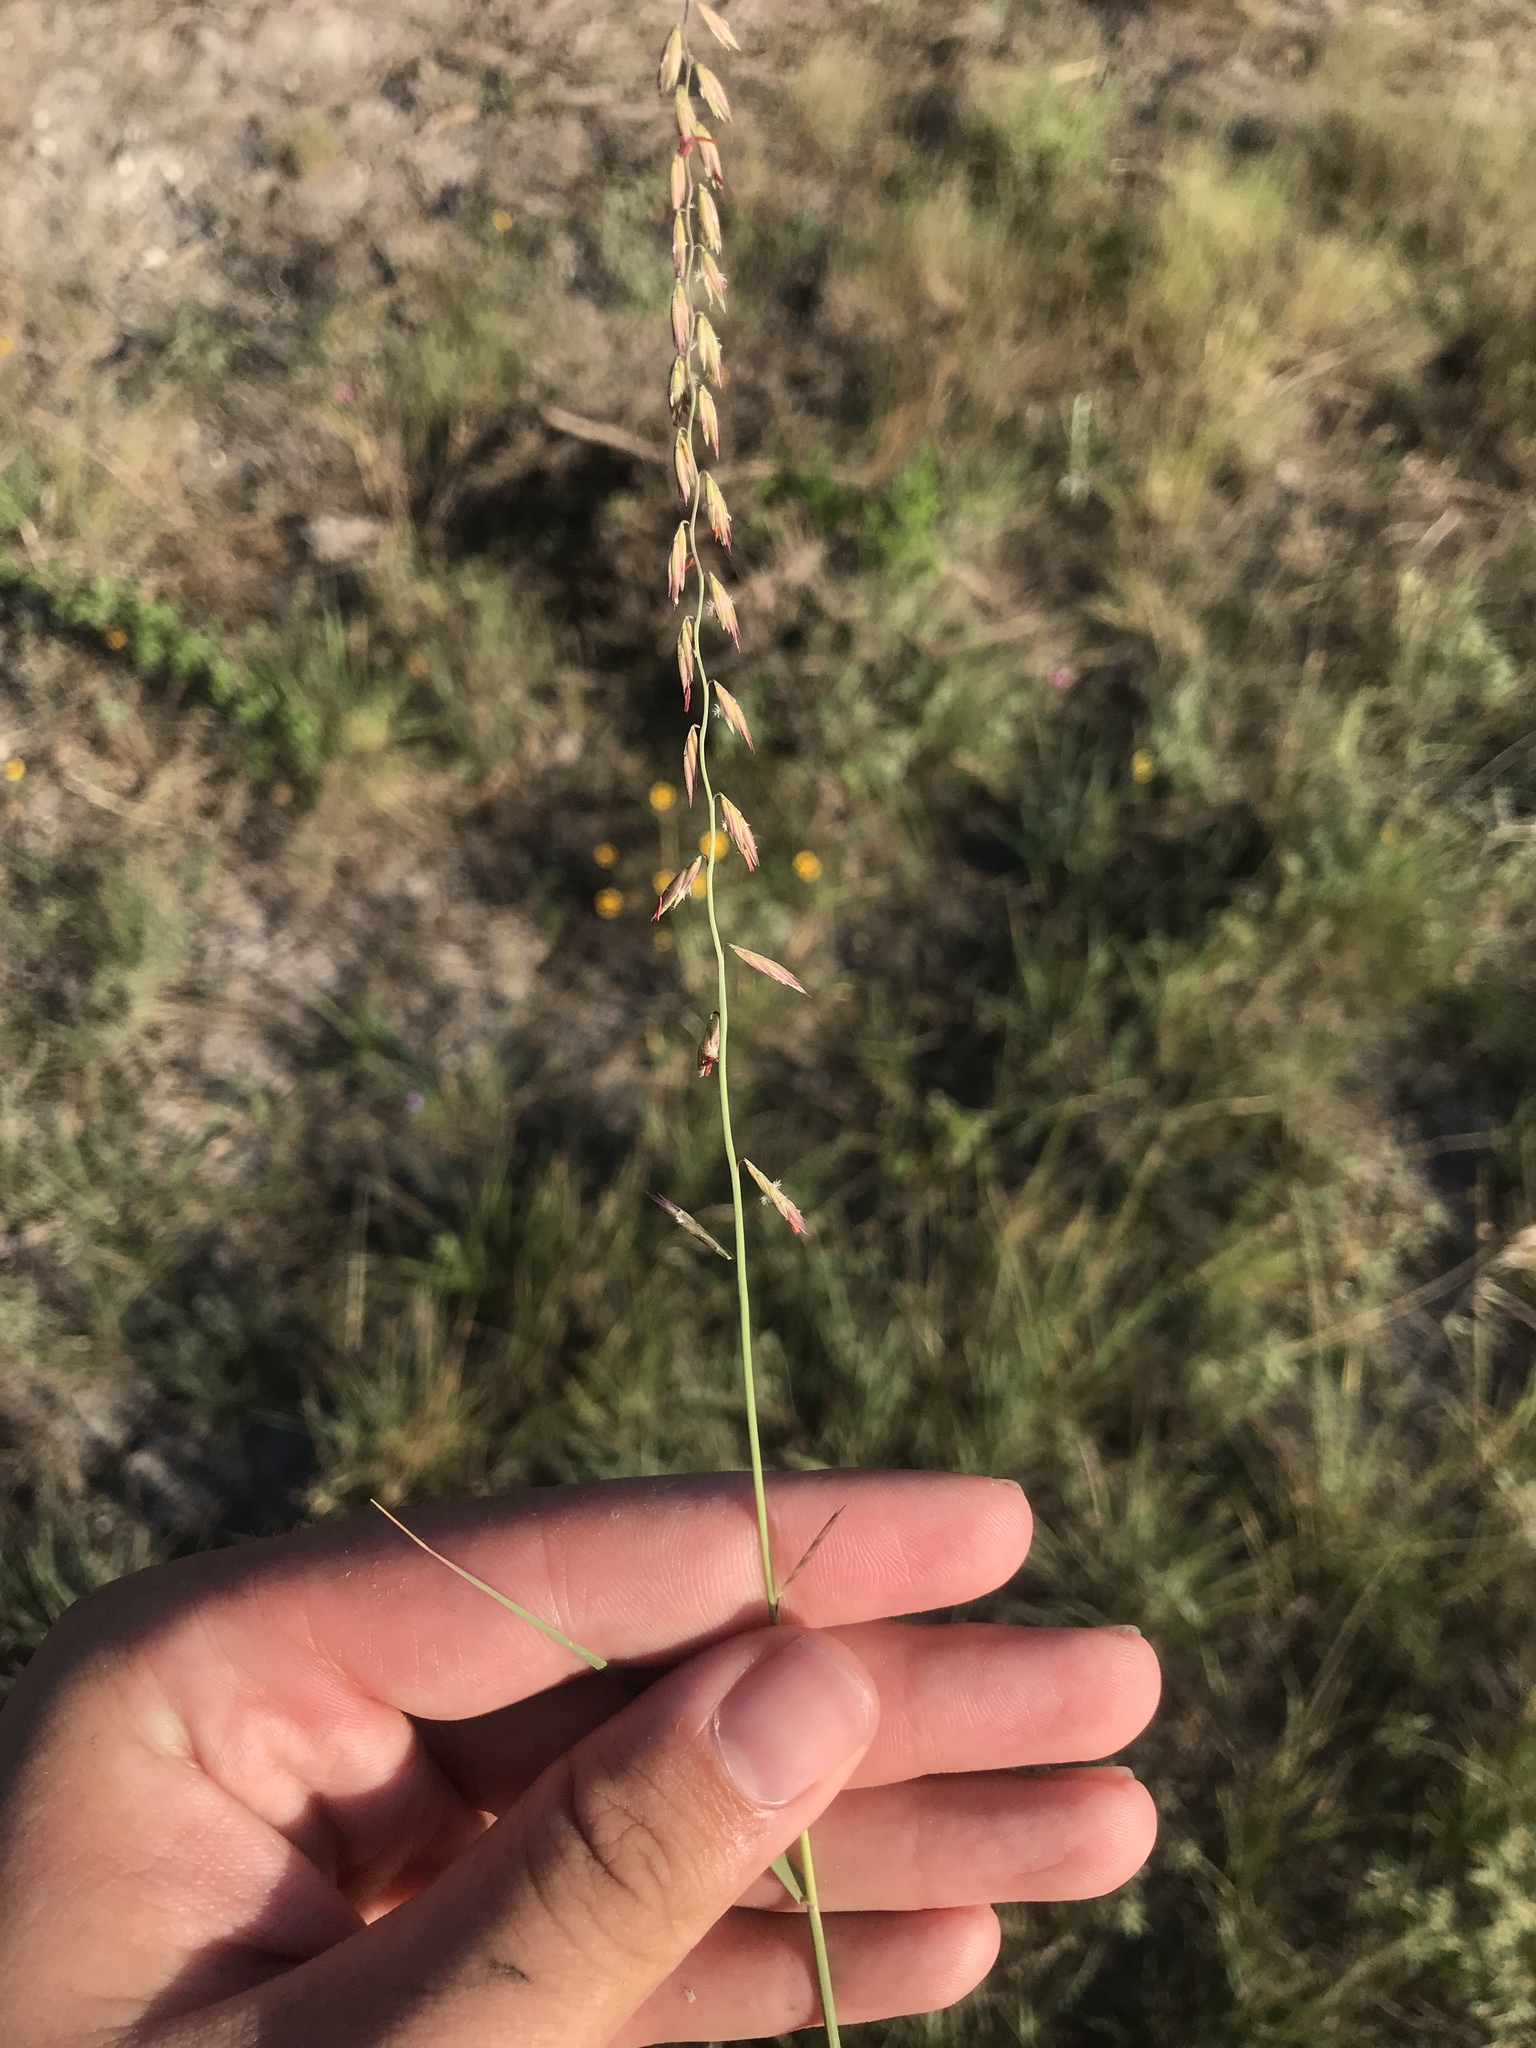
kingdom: Plantae
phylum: Tracheophyta
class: Liliopsida
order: Poales
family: Poaceae
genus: Bouteloua
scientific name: Bouteloua curtipendula
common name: Side-oats grama
